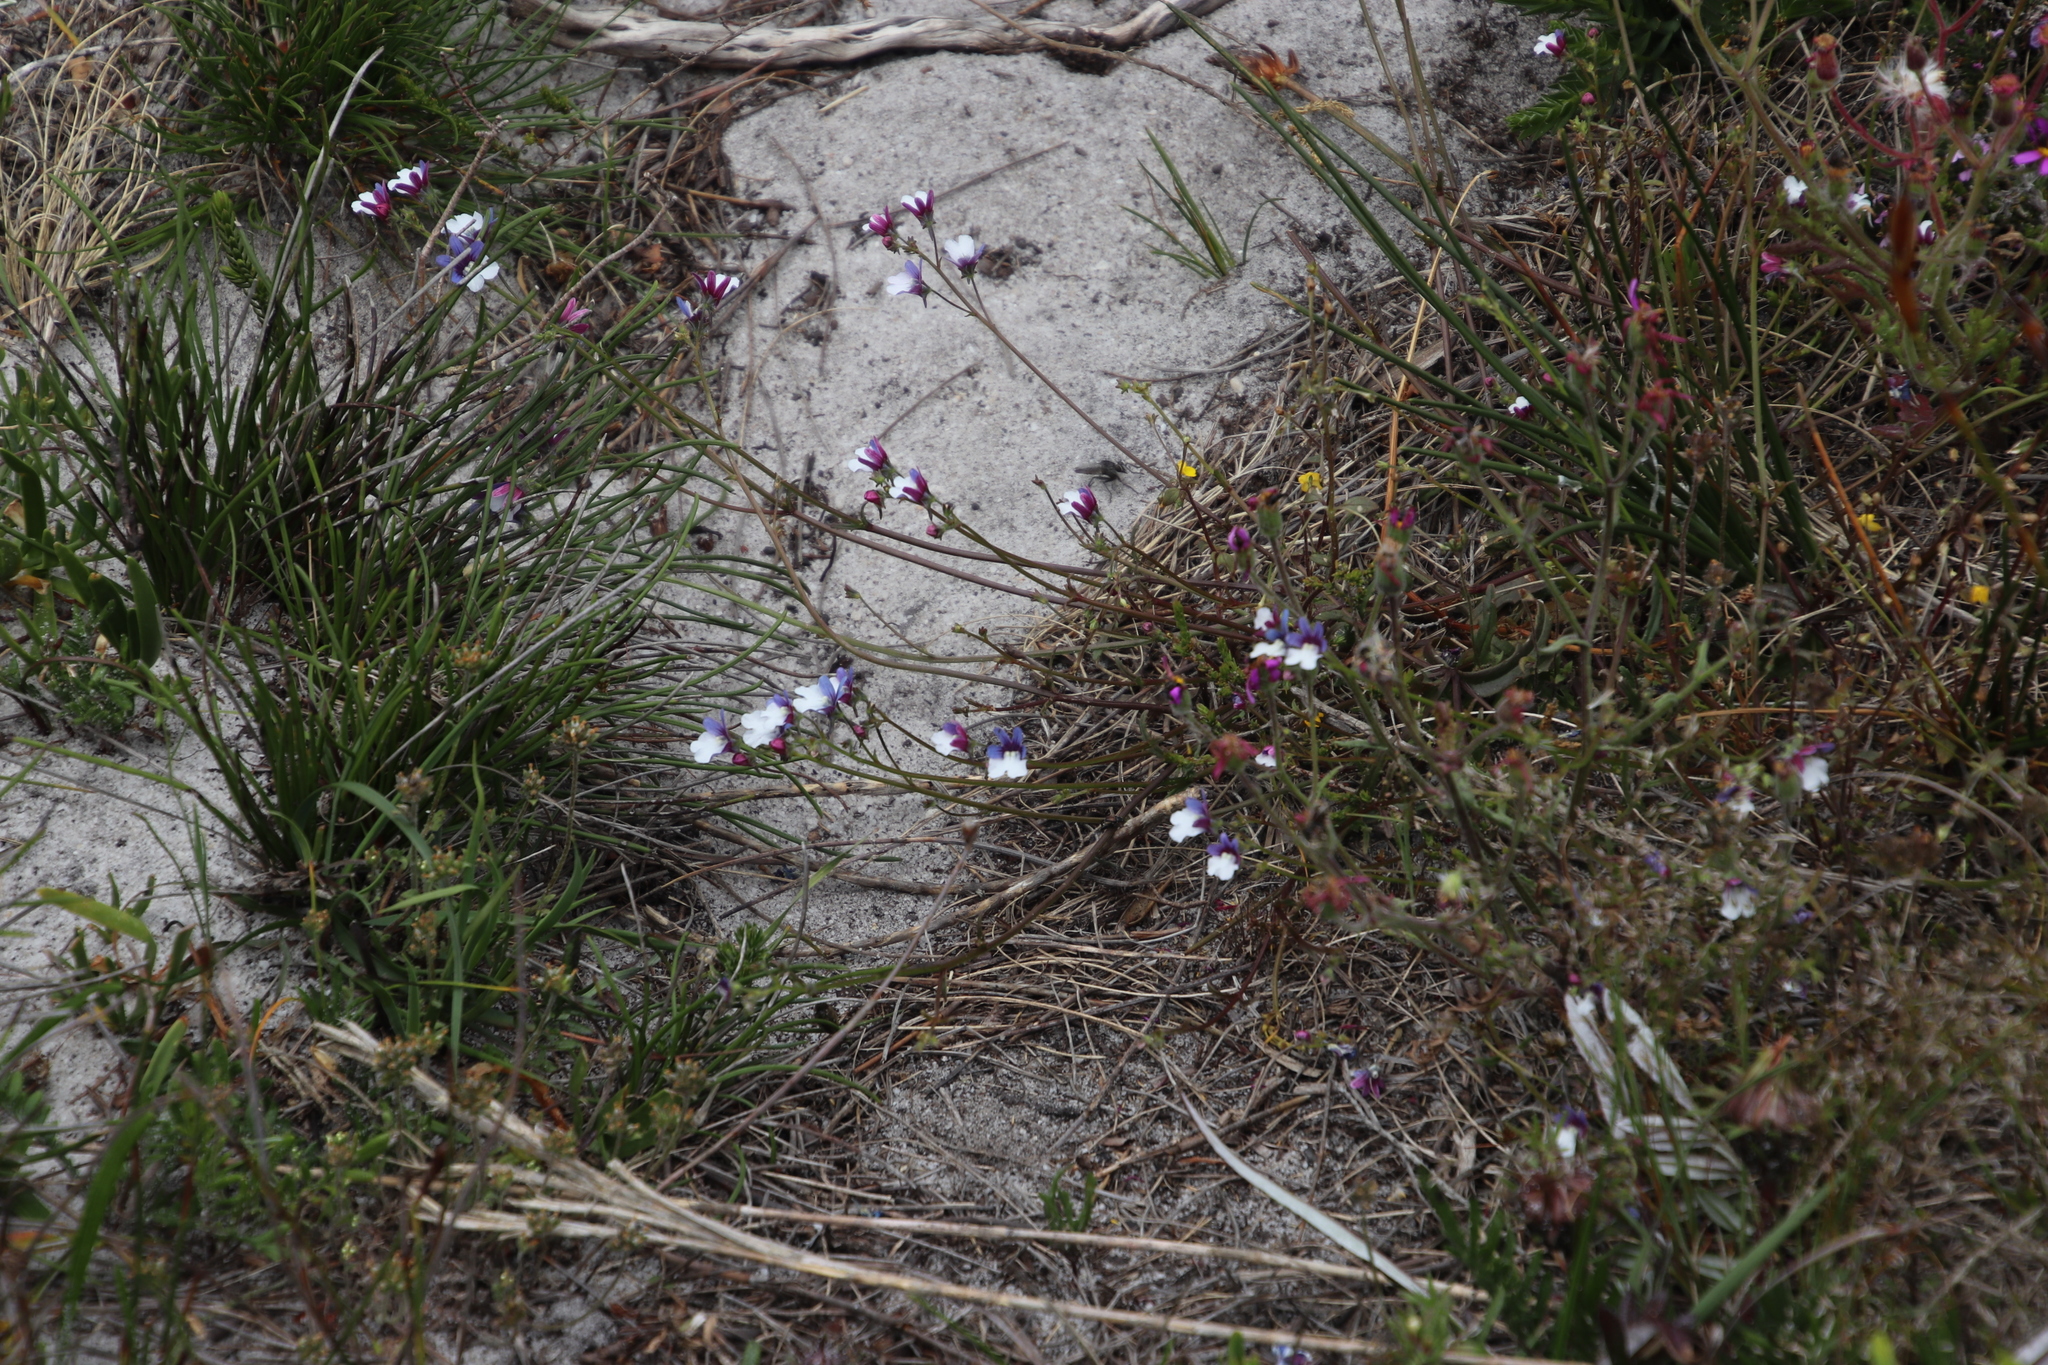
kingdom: Plantae
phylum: Tracheophyta
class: Magnoliopsida
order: Lamiales
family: Scrophulariaceae
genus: Nemesia
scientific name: Nemesia affinis
